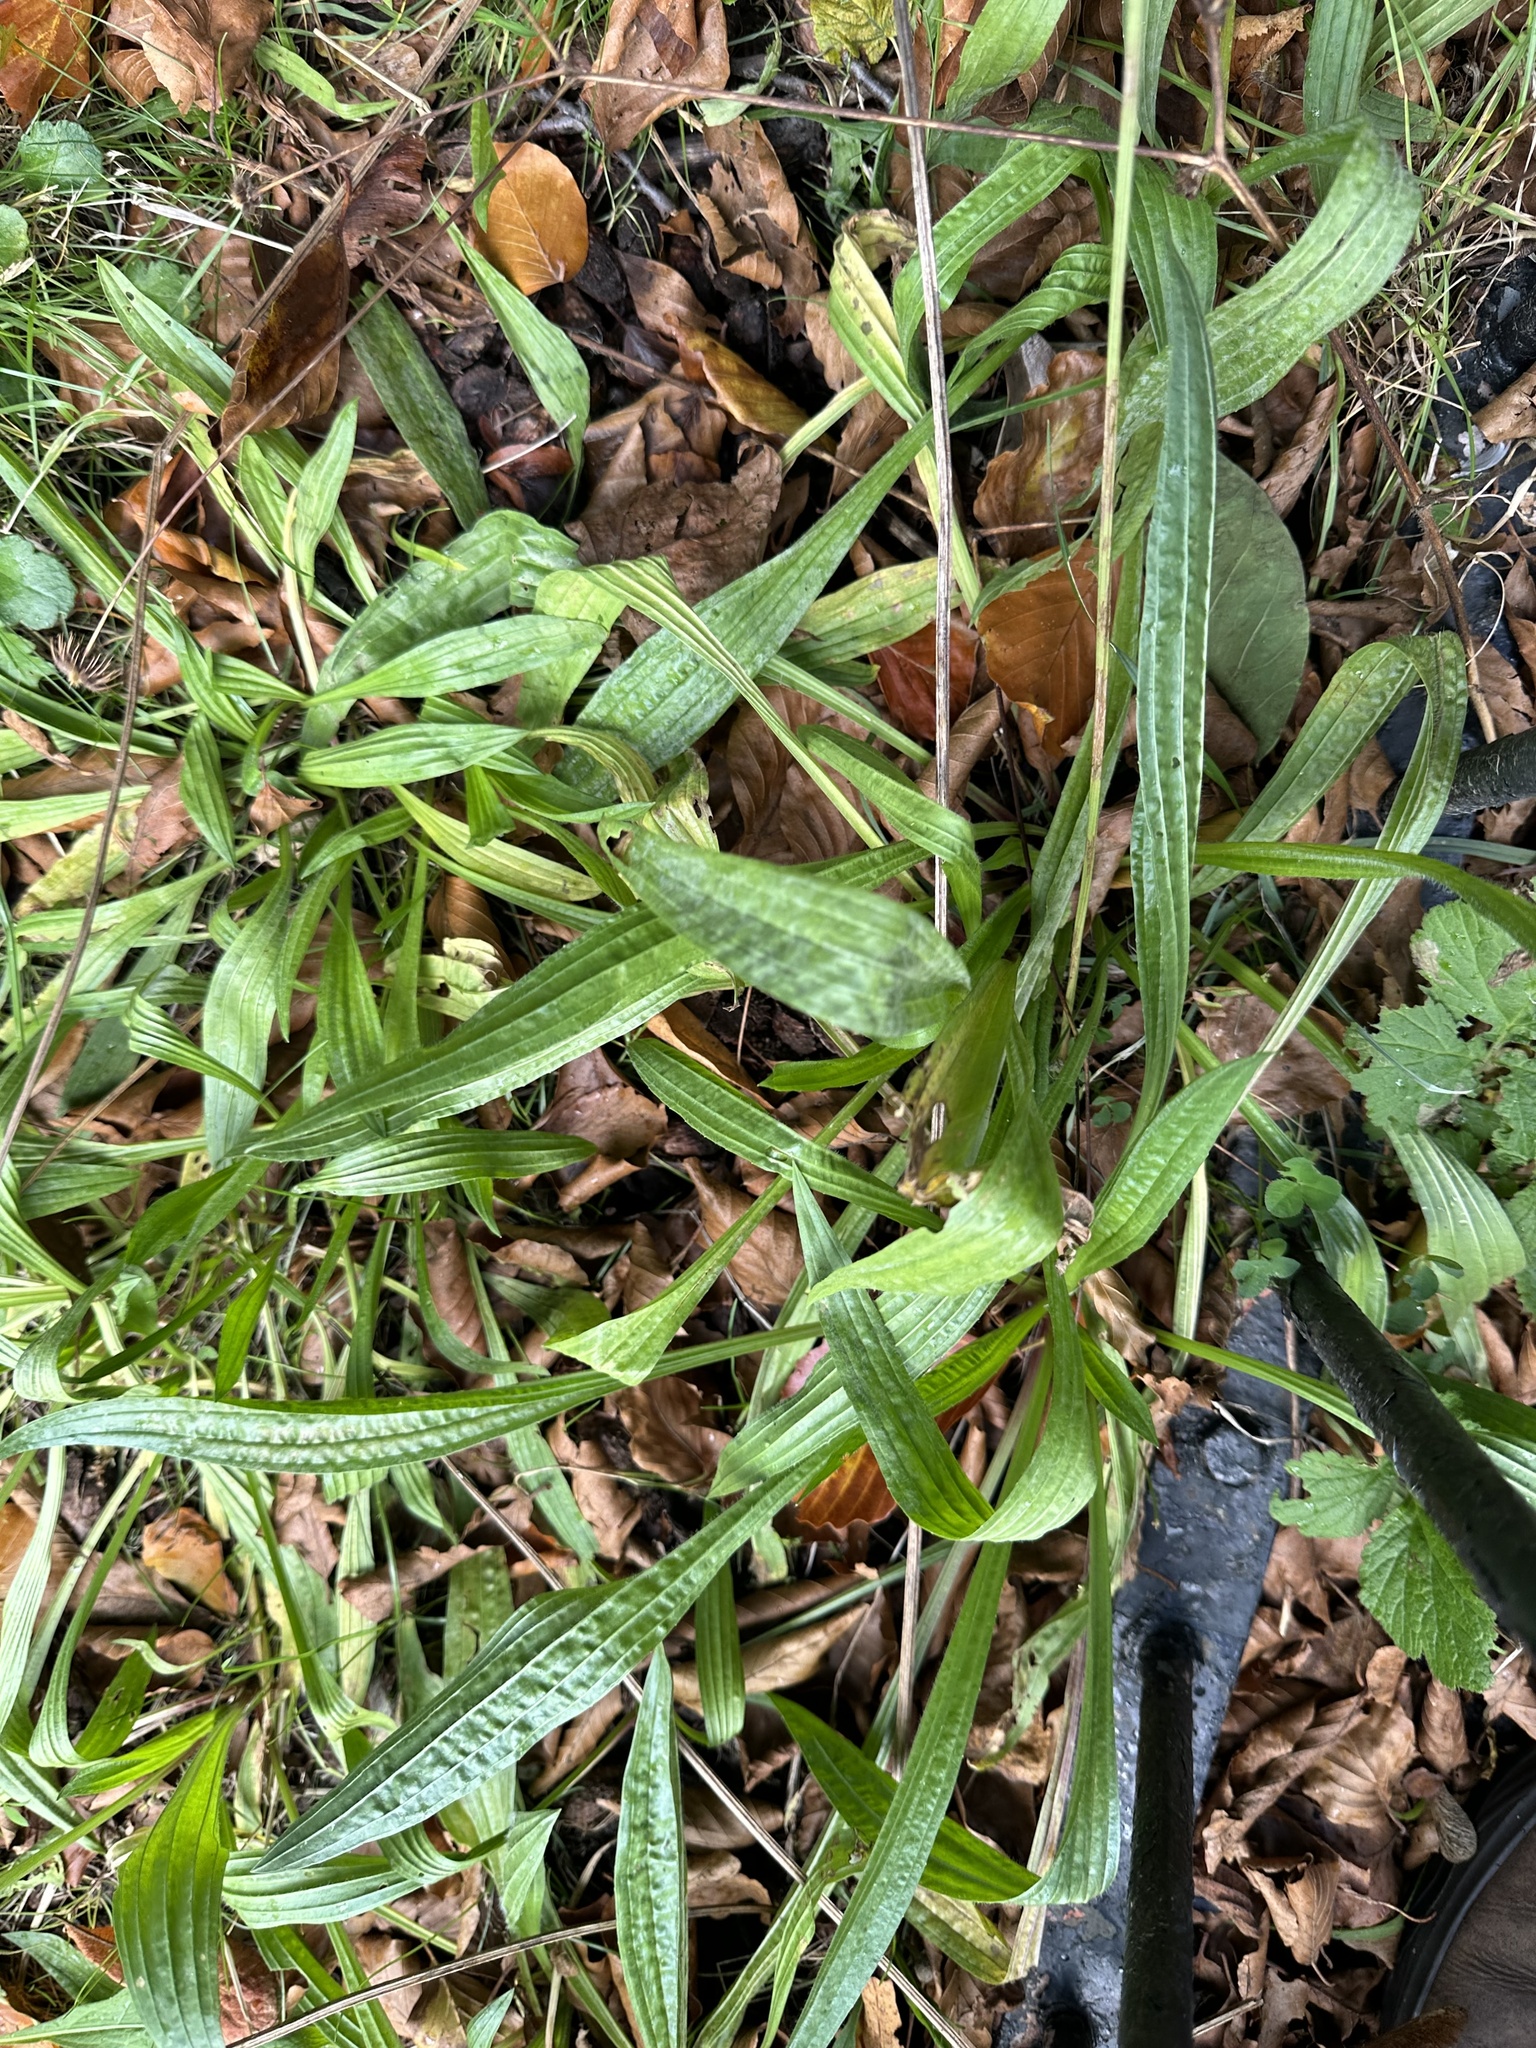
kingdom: Plantae
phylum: Tracheophyta
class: Magnoliopsida
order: Lamiales
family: Plantaginaceae
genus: Plantago
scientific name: Plantago lanceolata
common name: Ribwort plantain
